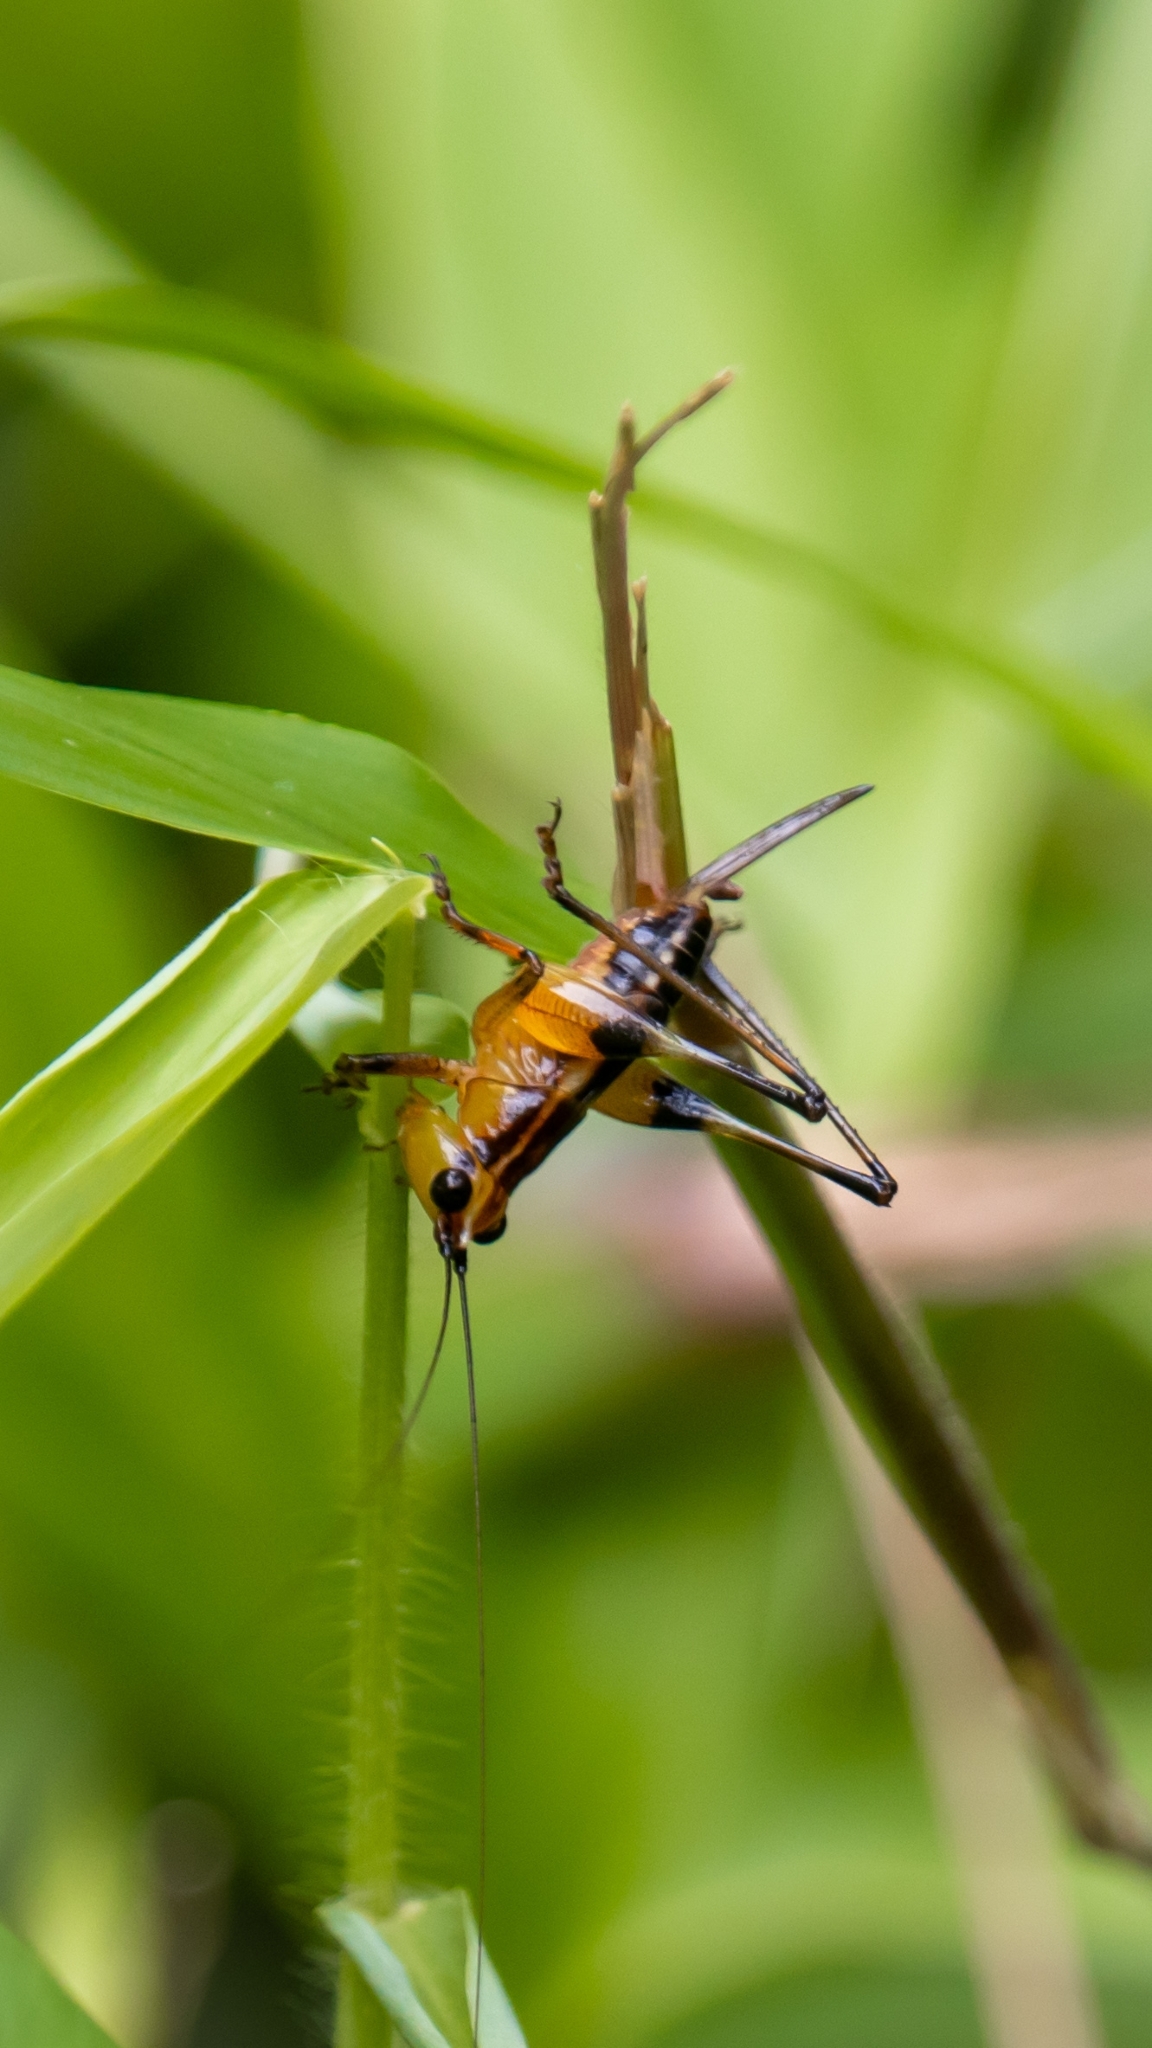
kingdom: Animalia
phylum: Arthropoda
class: Insecta
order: Orthoptera
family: Tettigoniidae
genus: Conocephalus
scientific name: Conocephalus melaenus
